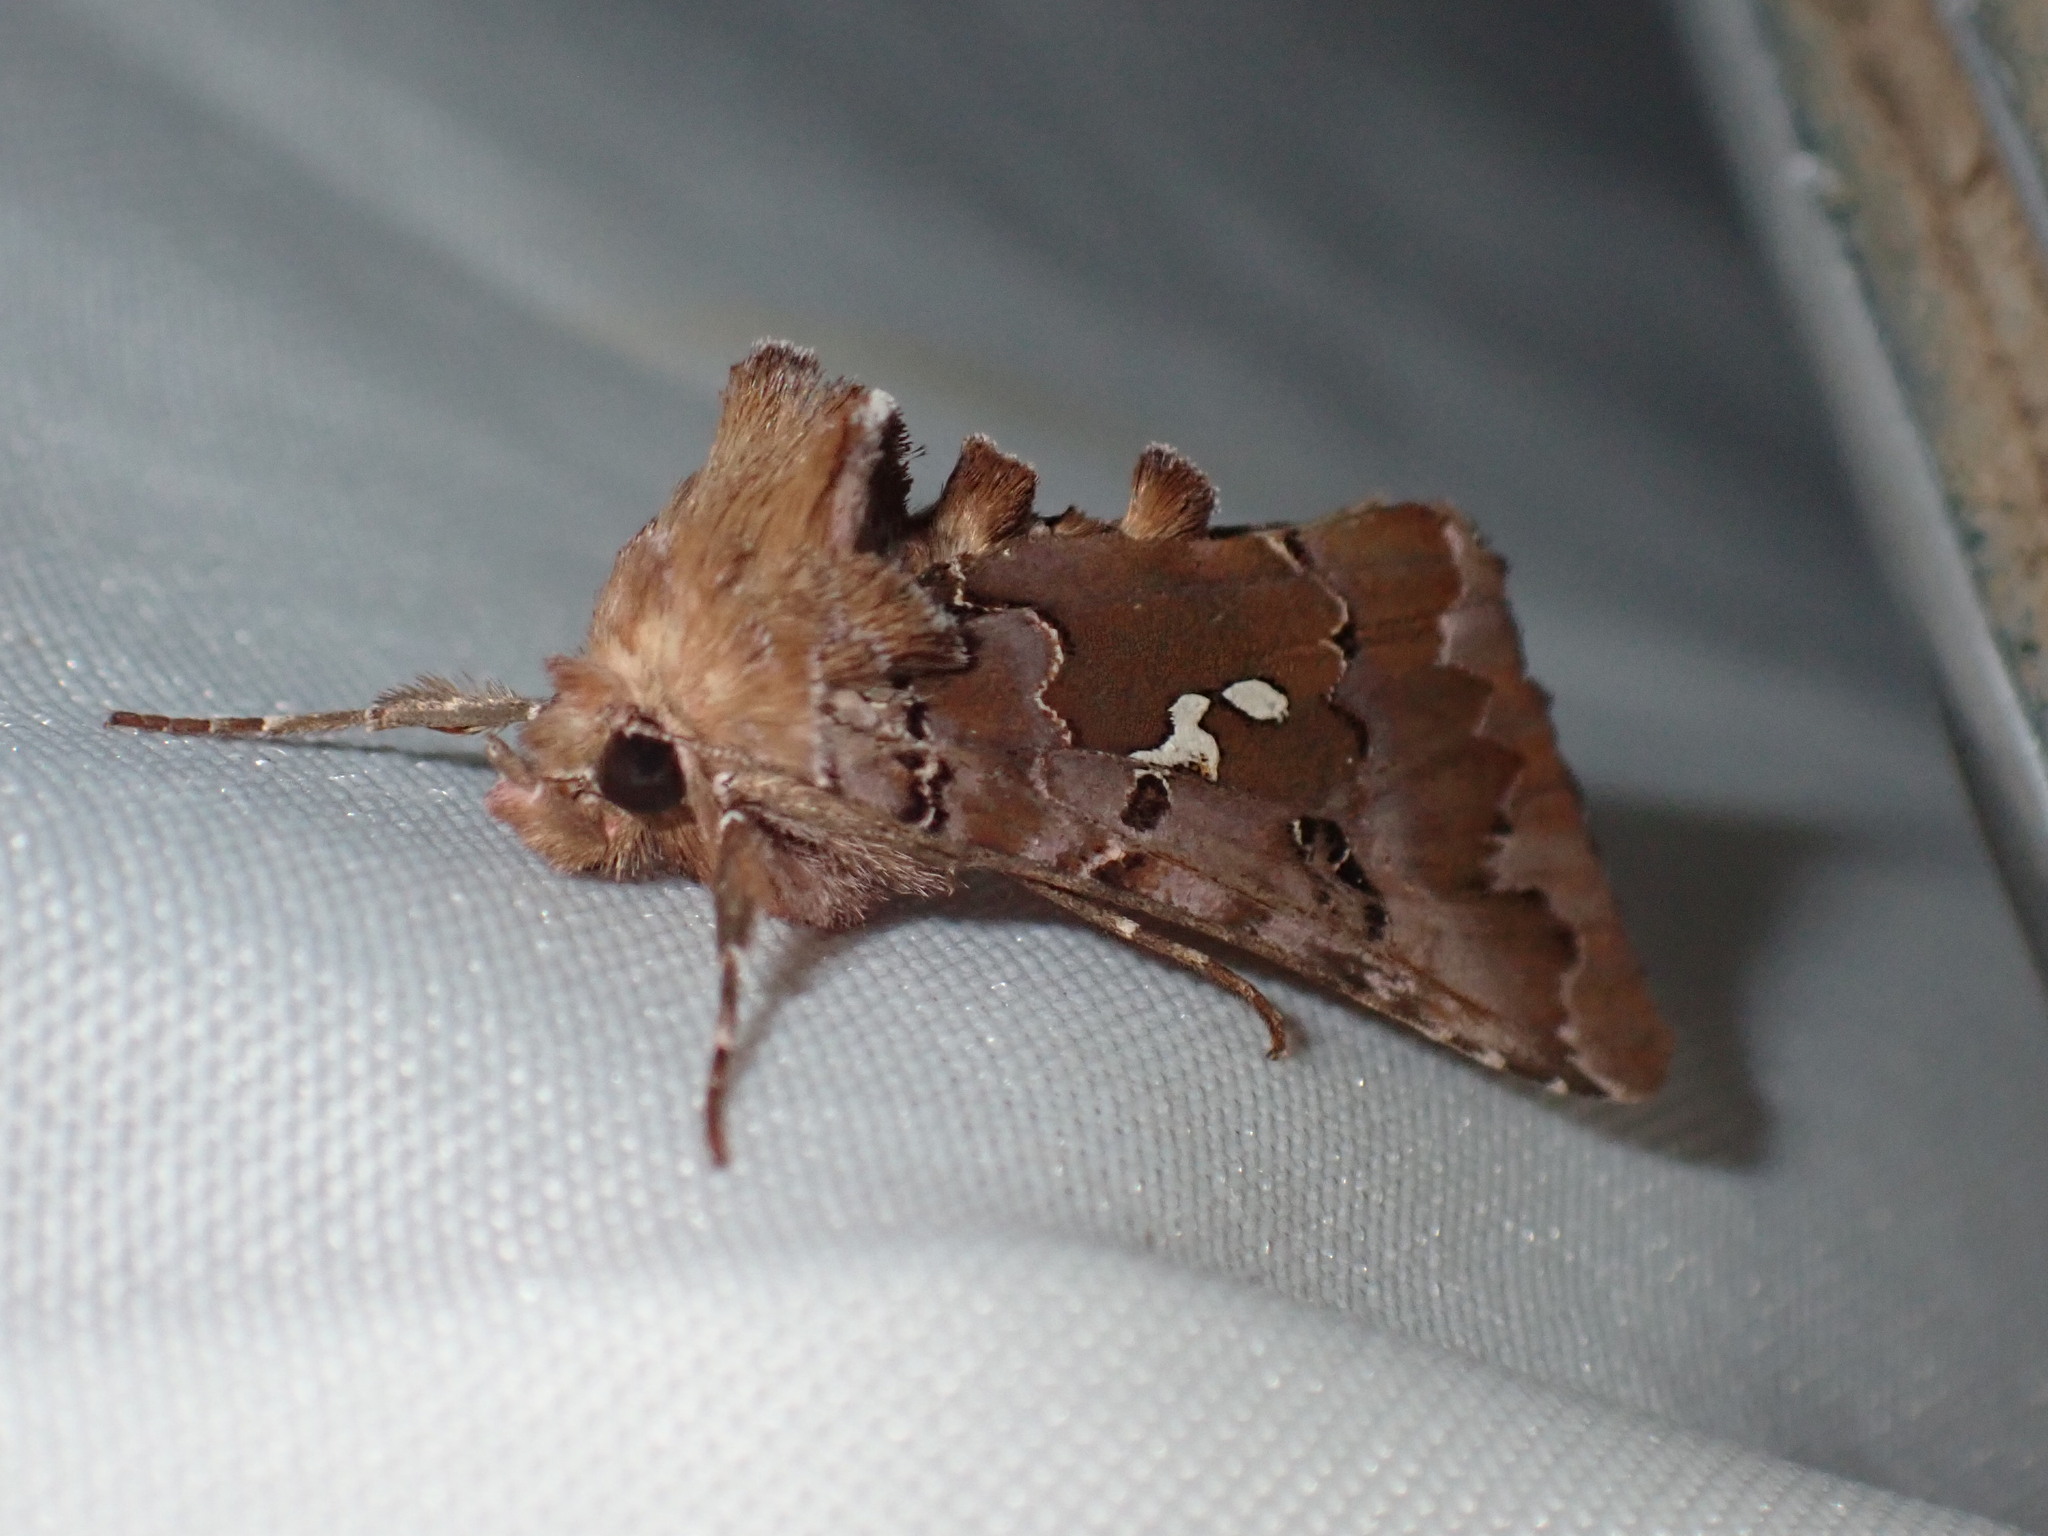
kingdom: Animalia
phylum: Arthropoda
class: Insecta
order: Lepidoptera
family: Noctuidae
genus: Autographa
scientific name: Autographa corusca
